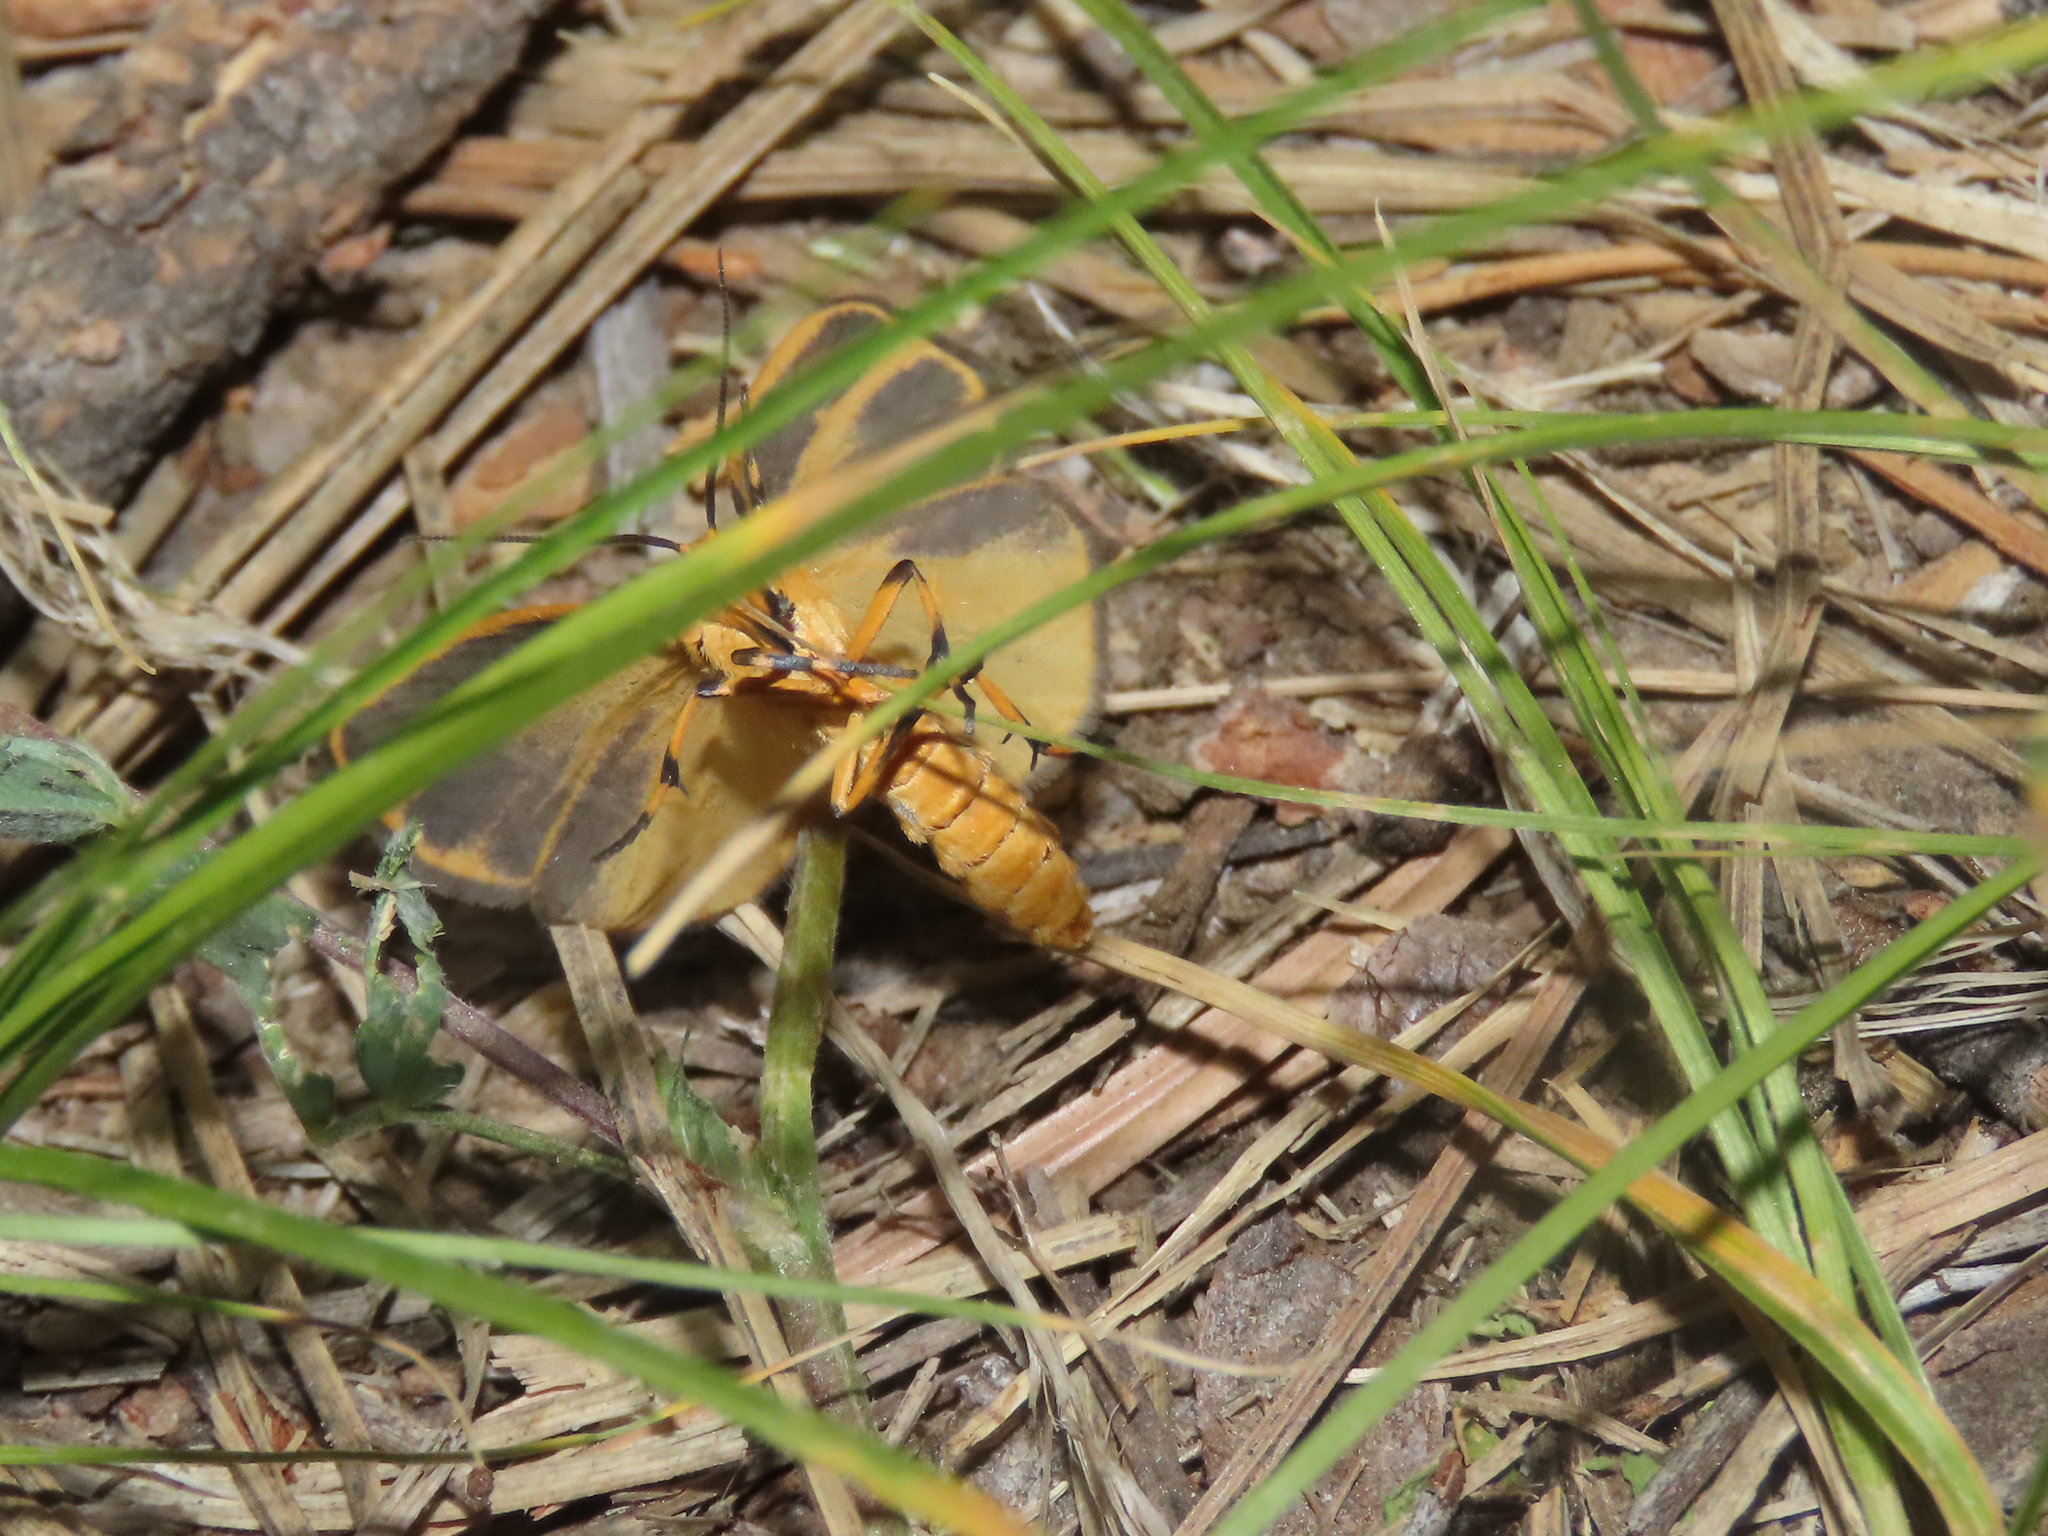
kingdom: Animalia
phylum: Arthropoda
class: Insecta
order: Lepidoptera
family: Erebidae
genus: Hypoprepia
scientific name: Hypoprepia cadaverosa
